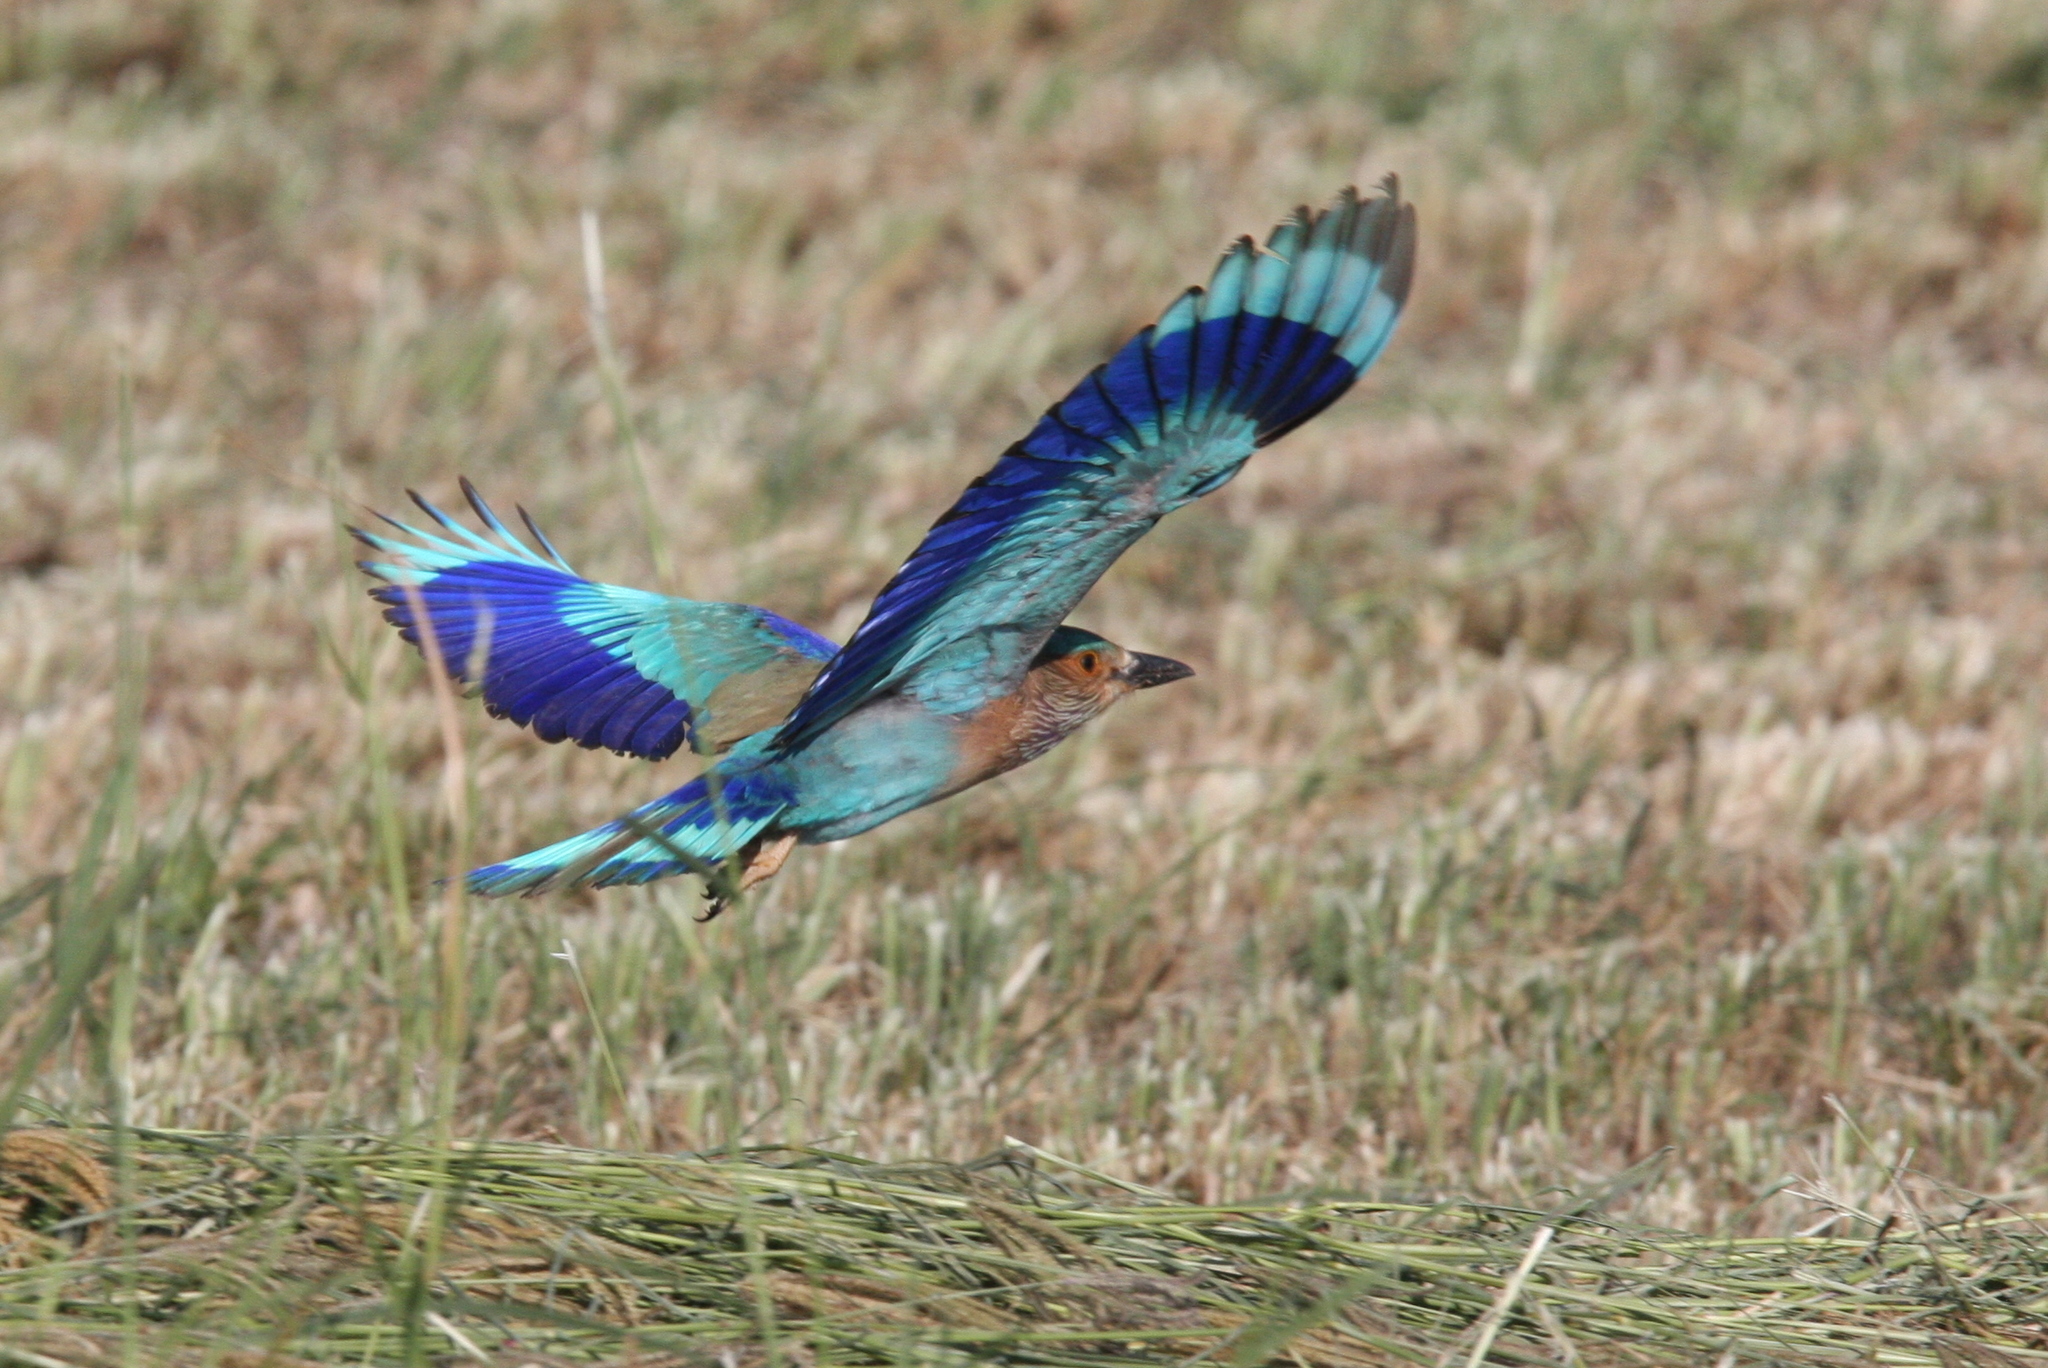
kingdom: Animalia
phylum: Chordata
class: Aves
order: Coraciiformes
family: Coraciidae
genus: Coracias
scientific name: Coracias benghalensis
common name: Indian roller
